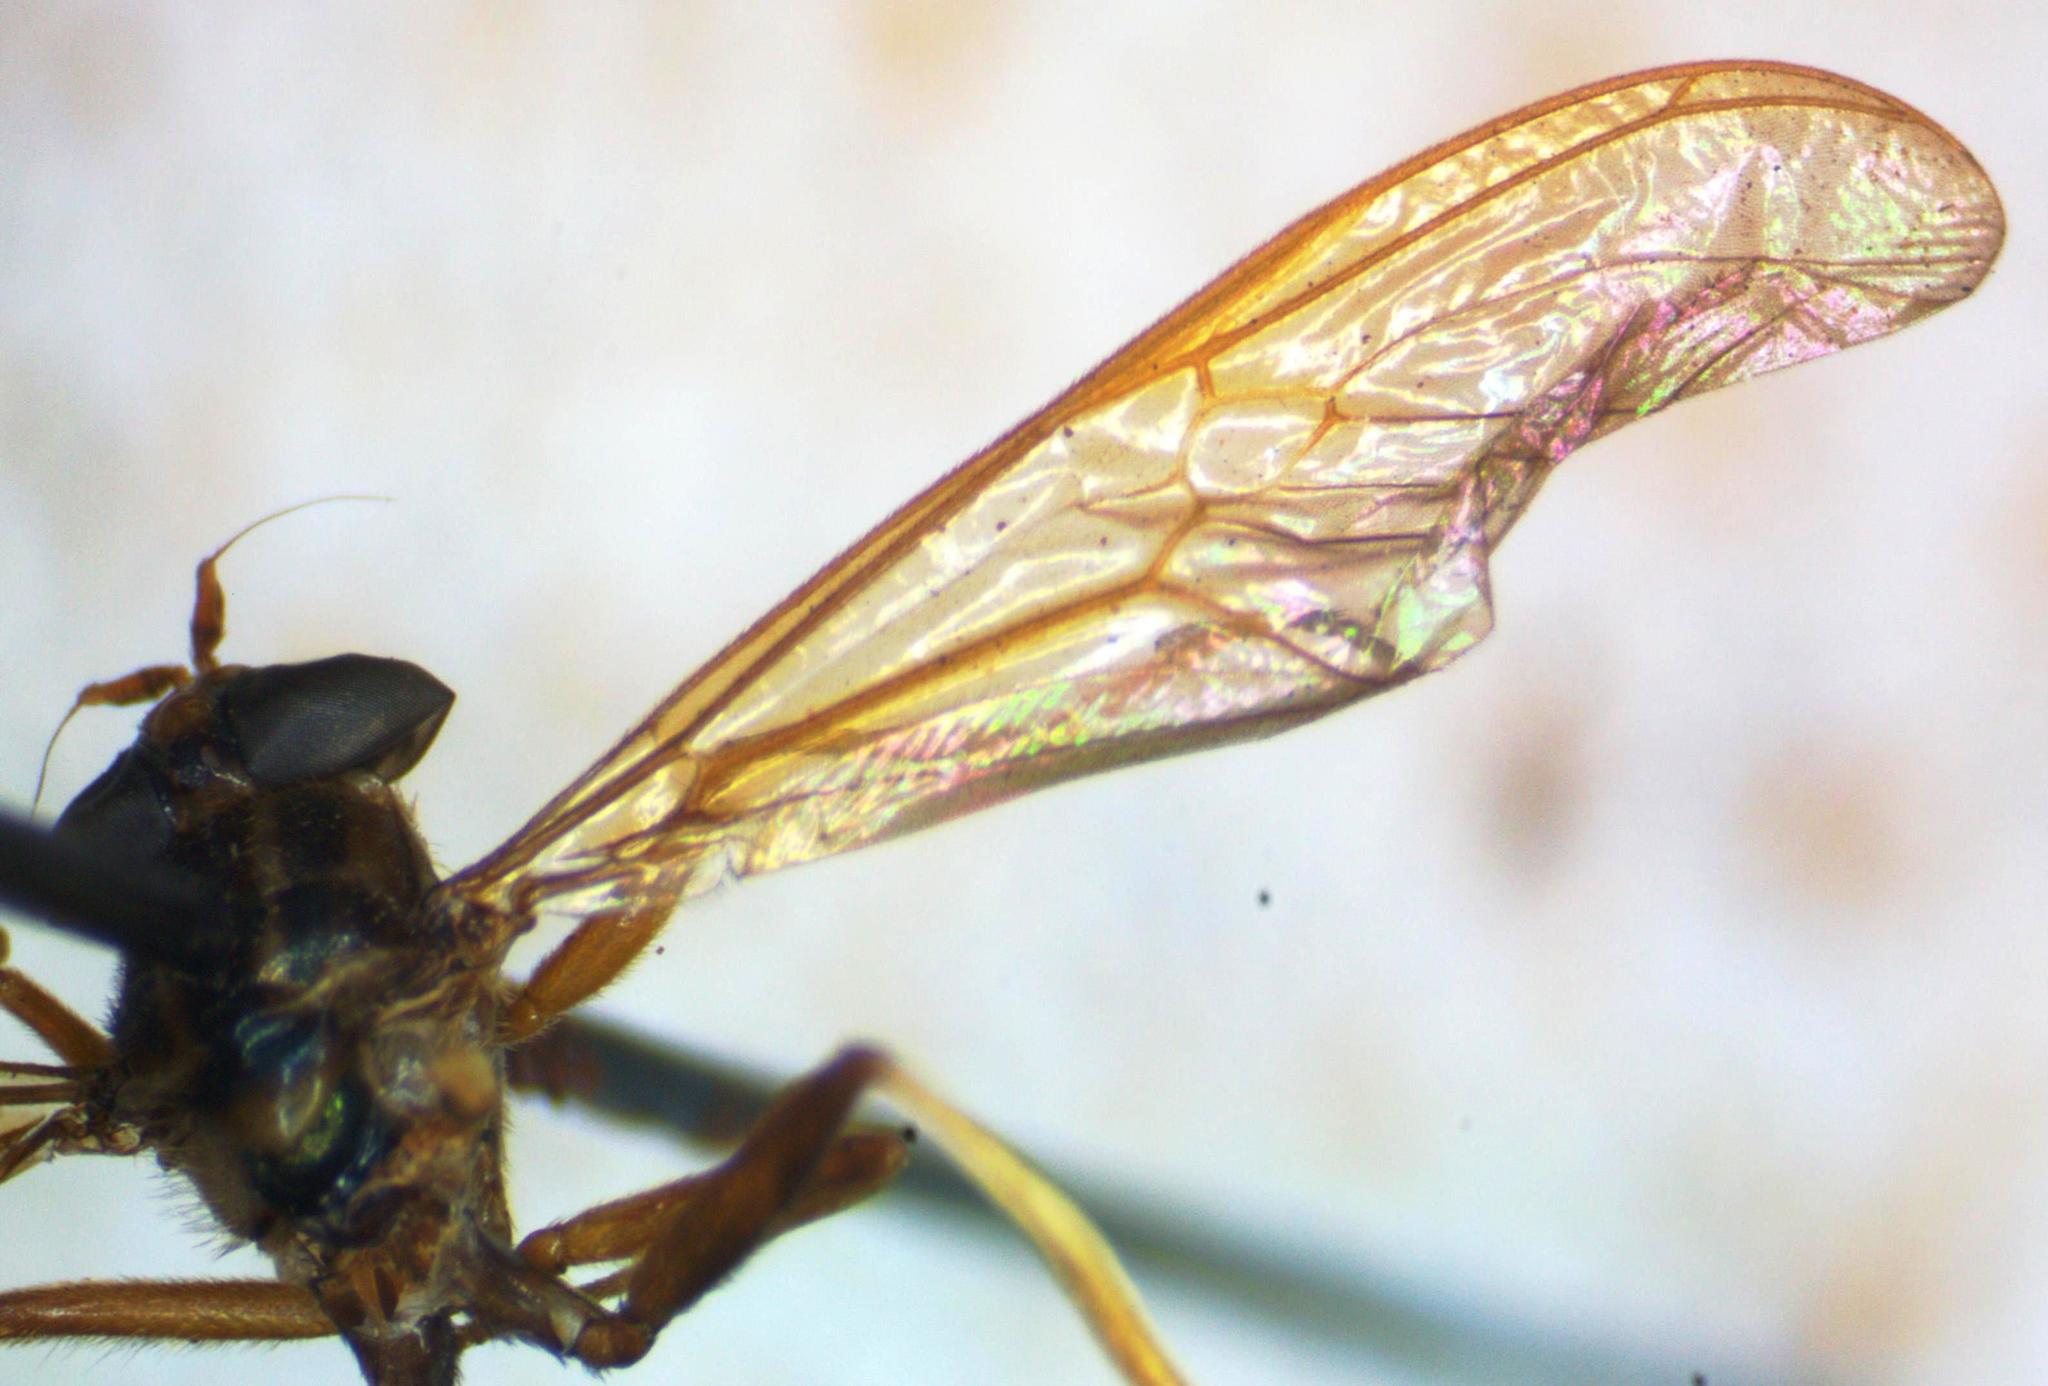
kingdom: Animalia
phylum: Arthropoda
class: Insecta
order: Diptera
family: Stratiomyidae
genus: Acrochaeta
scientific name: Acrochaeta convexifrons
